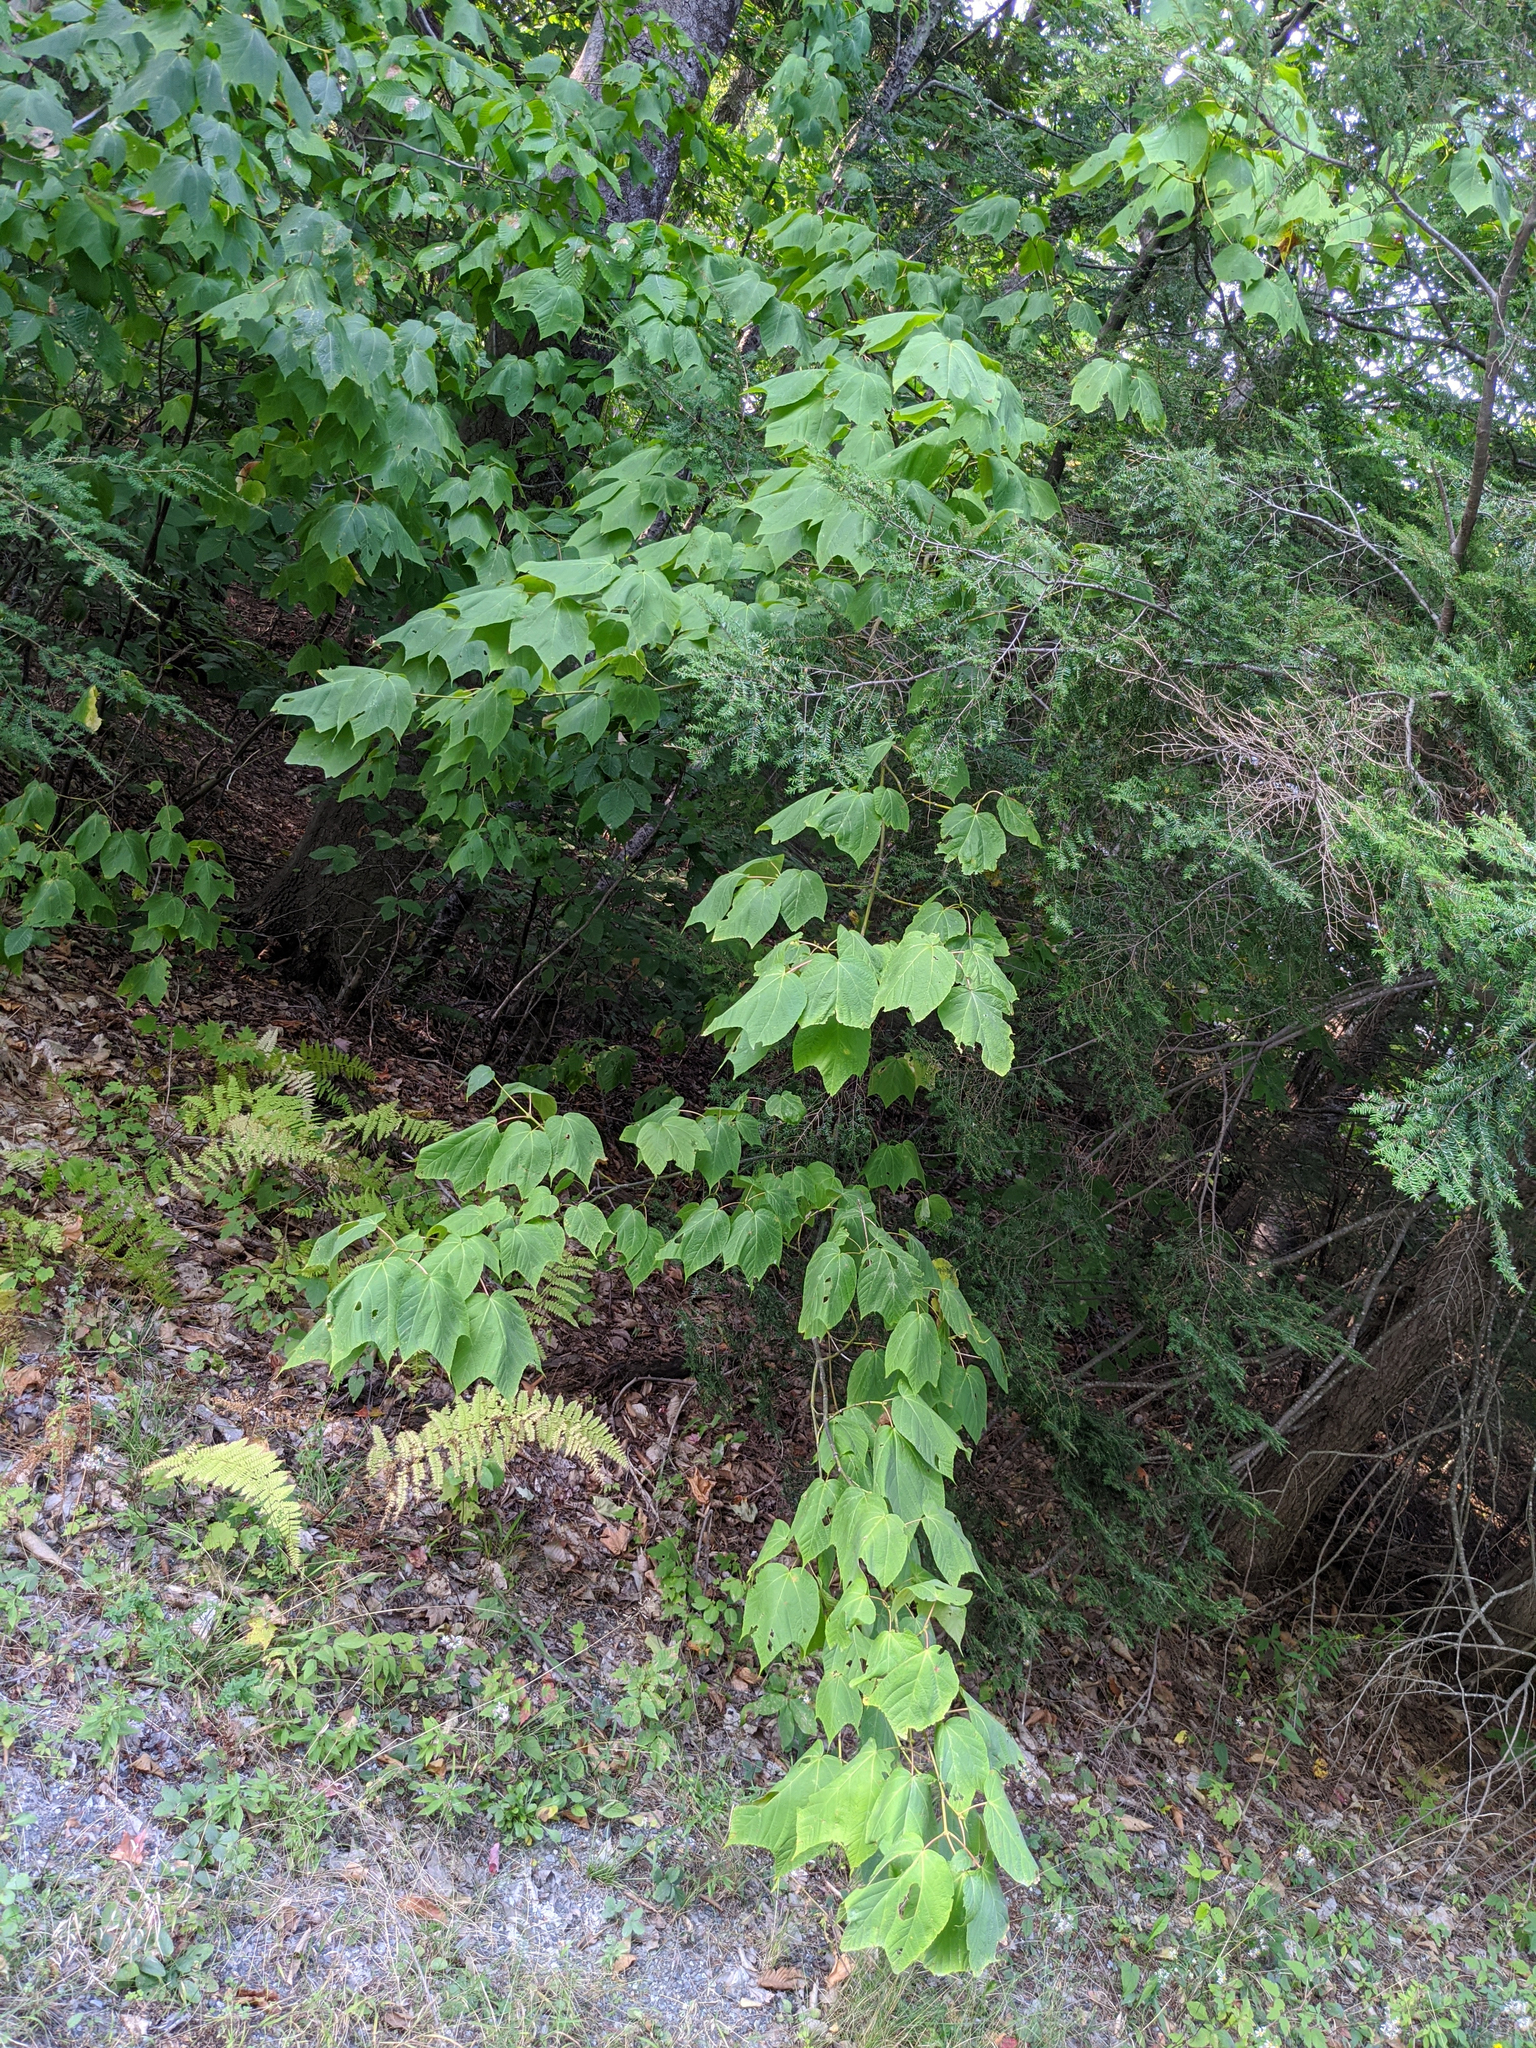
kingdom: Plantae
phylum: Tracheophyta
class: Magnoliopsida
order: Sapindales
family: Sapindaceae
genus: Acer
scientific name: Acer pensylvanicum
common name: Moosewood
